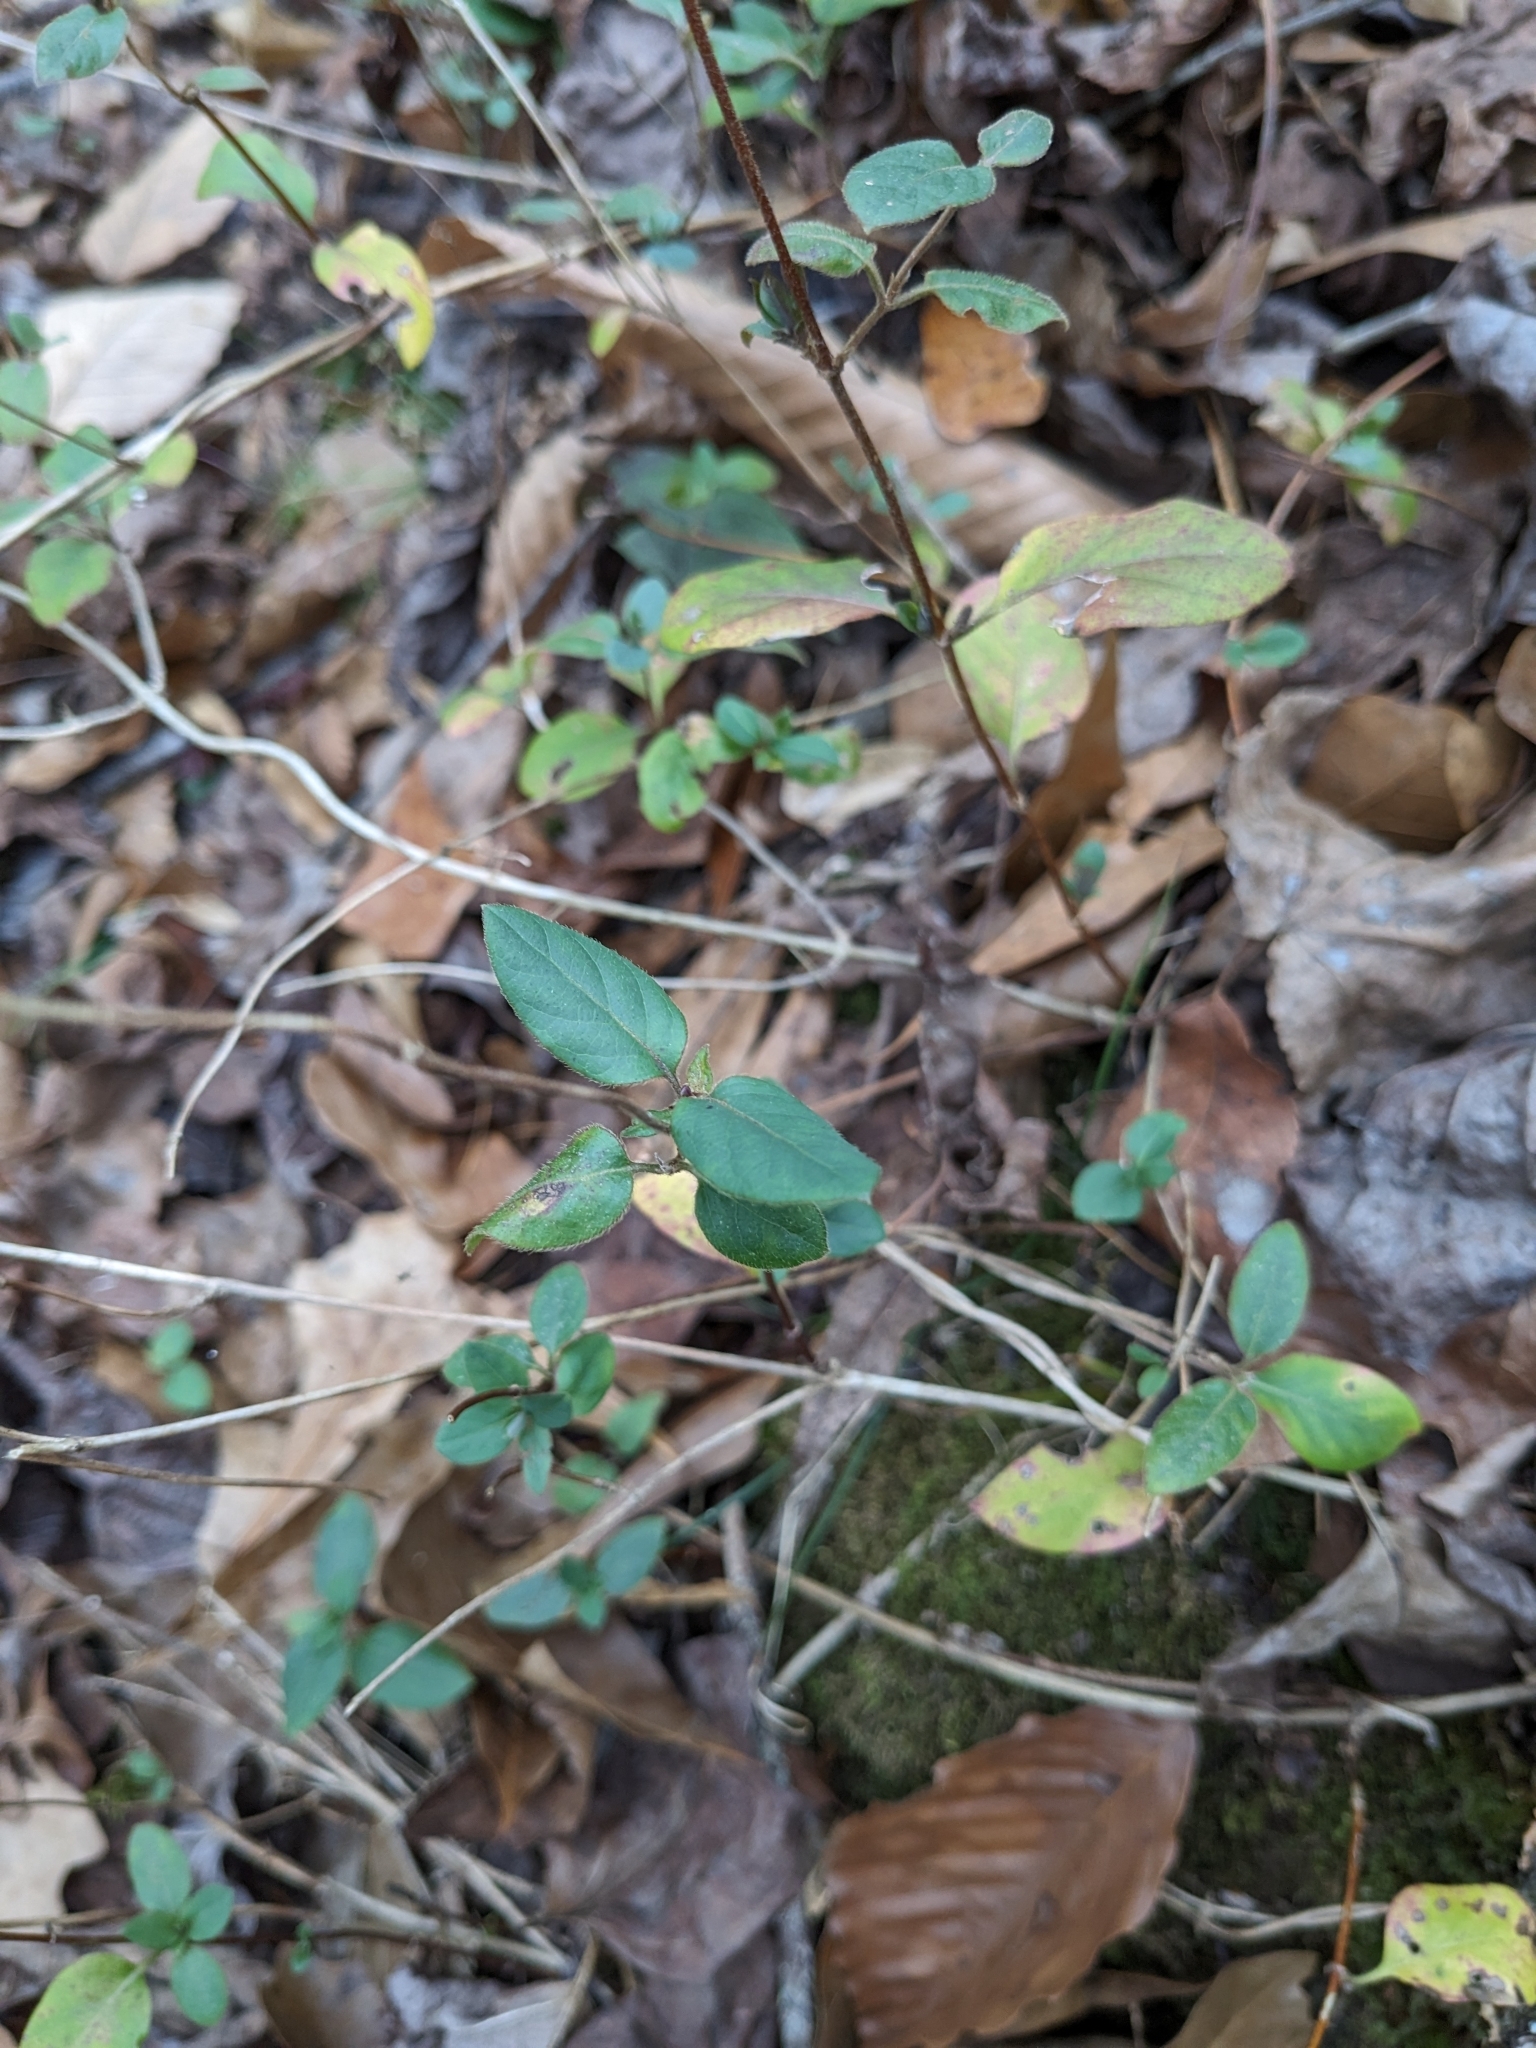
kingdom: Plantae
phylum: Tracheophyta
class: Magnoliopsida
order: Dipsacales
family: Caprifoliaceae
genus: Lonicera
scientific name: Lonicera japonica
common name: Japanese honeysuckle
